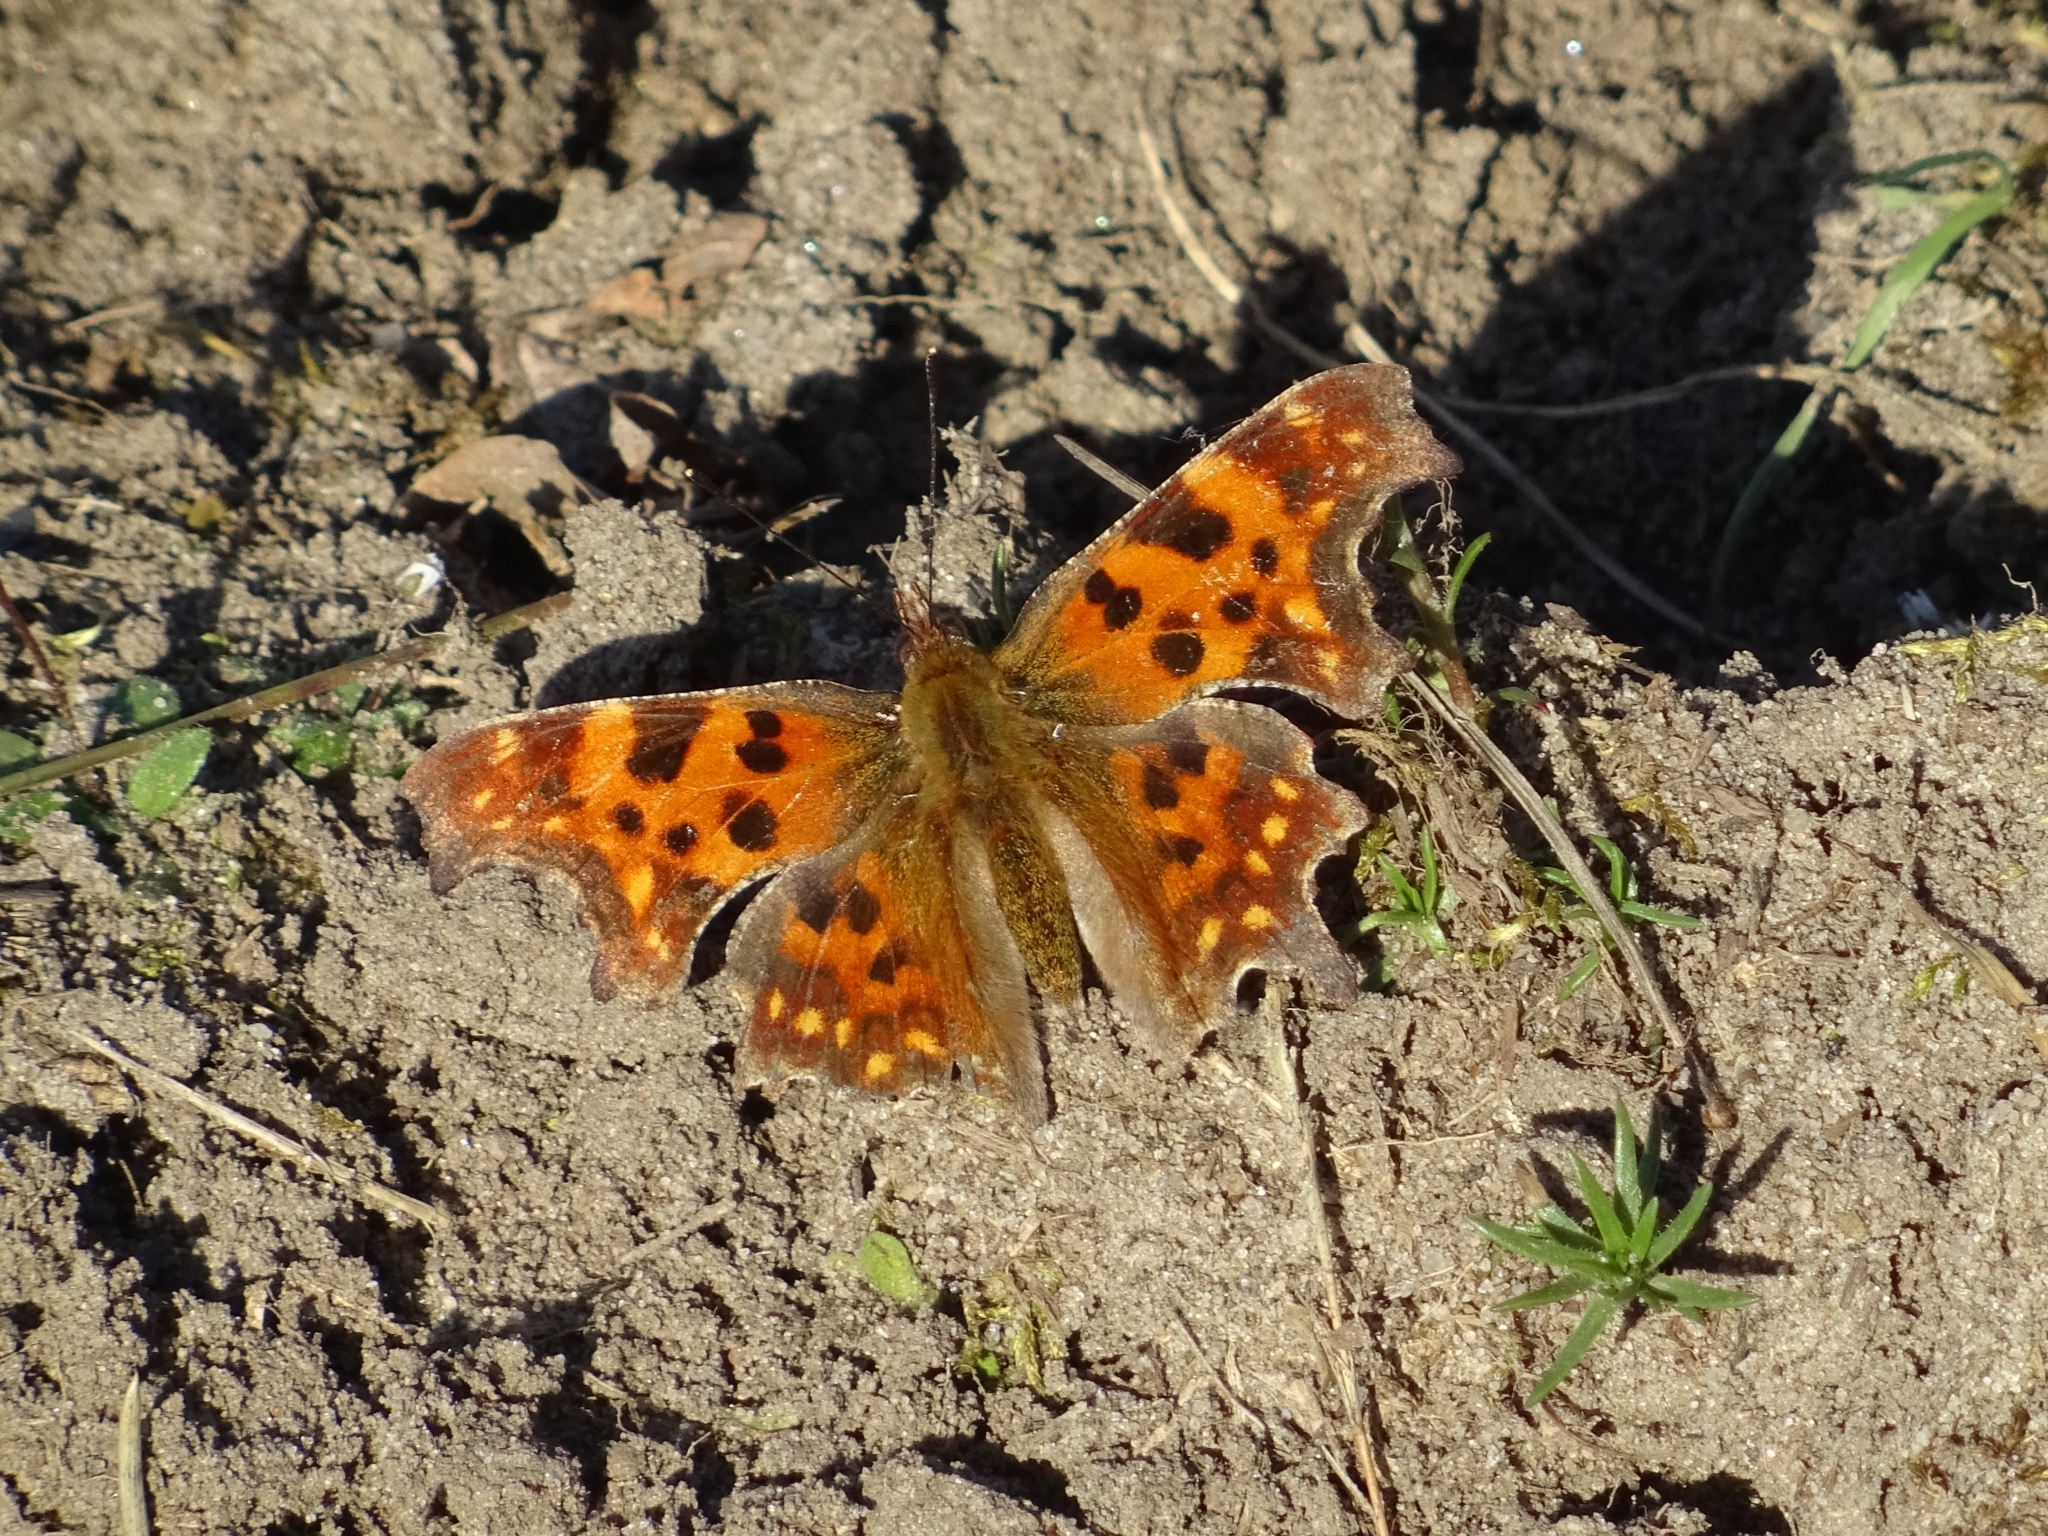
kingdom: Animalia
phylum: Arthropoda
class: Insecta
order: Lepidoptera
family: Nymphalidae
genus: Polygonia
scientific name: Polygonia c-album
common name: Comma
